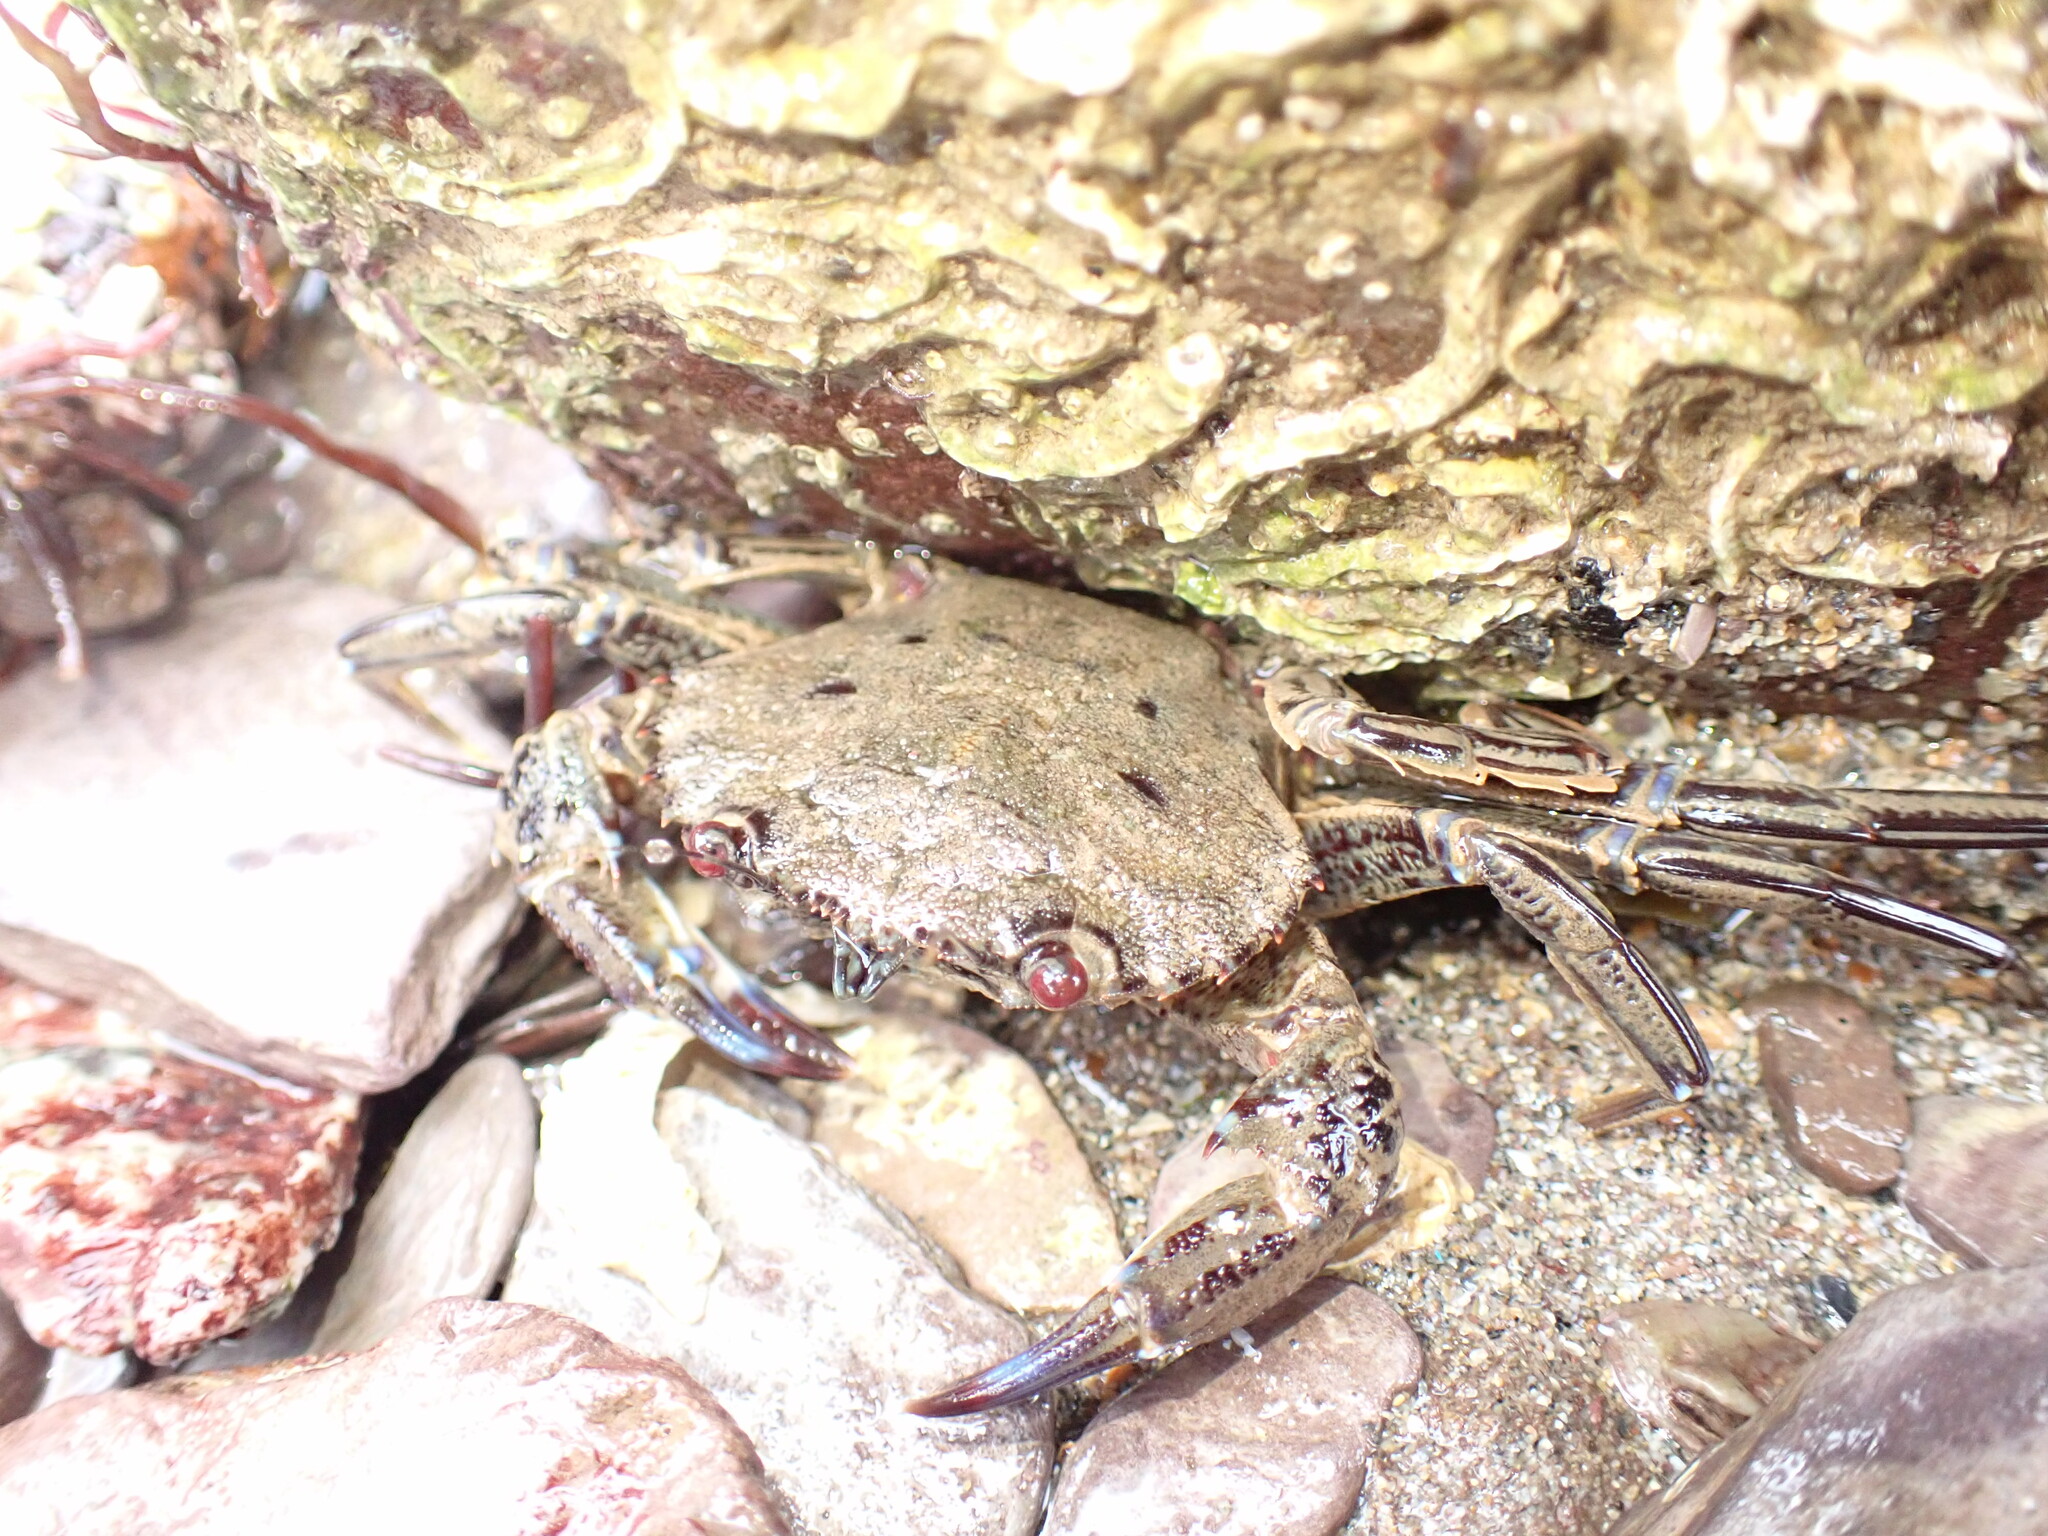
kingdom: Animalia
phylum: Arthropoda
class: Malacostraca
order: Decapoda
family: Polybiidae
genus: Necora
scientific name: Necora puber
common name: Velvet swimming crab
